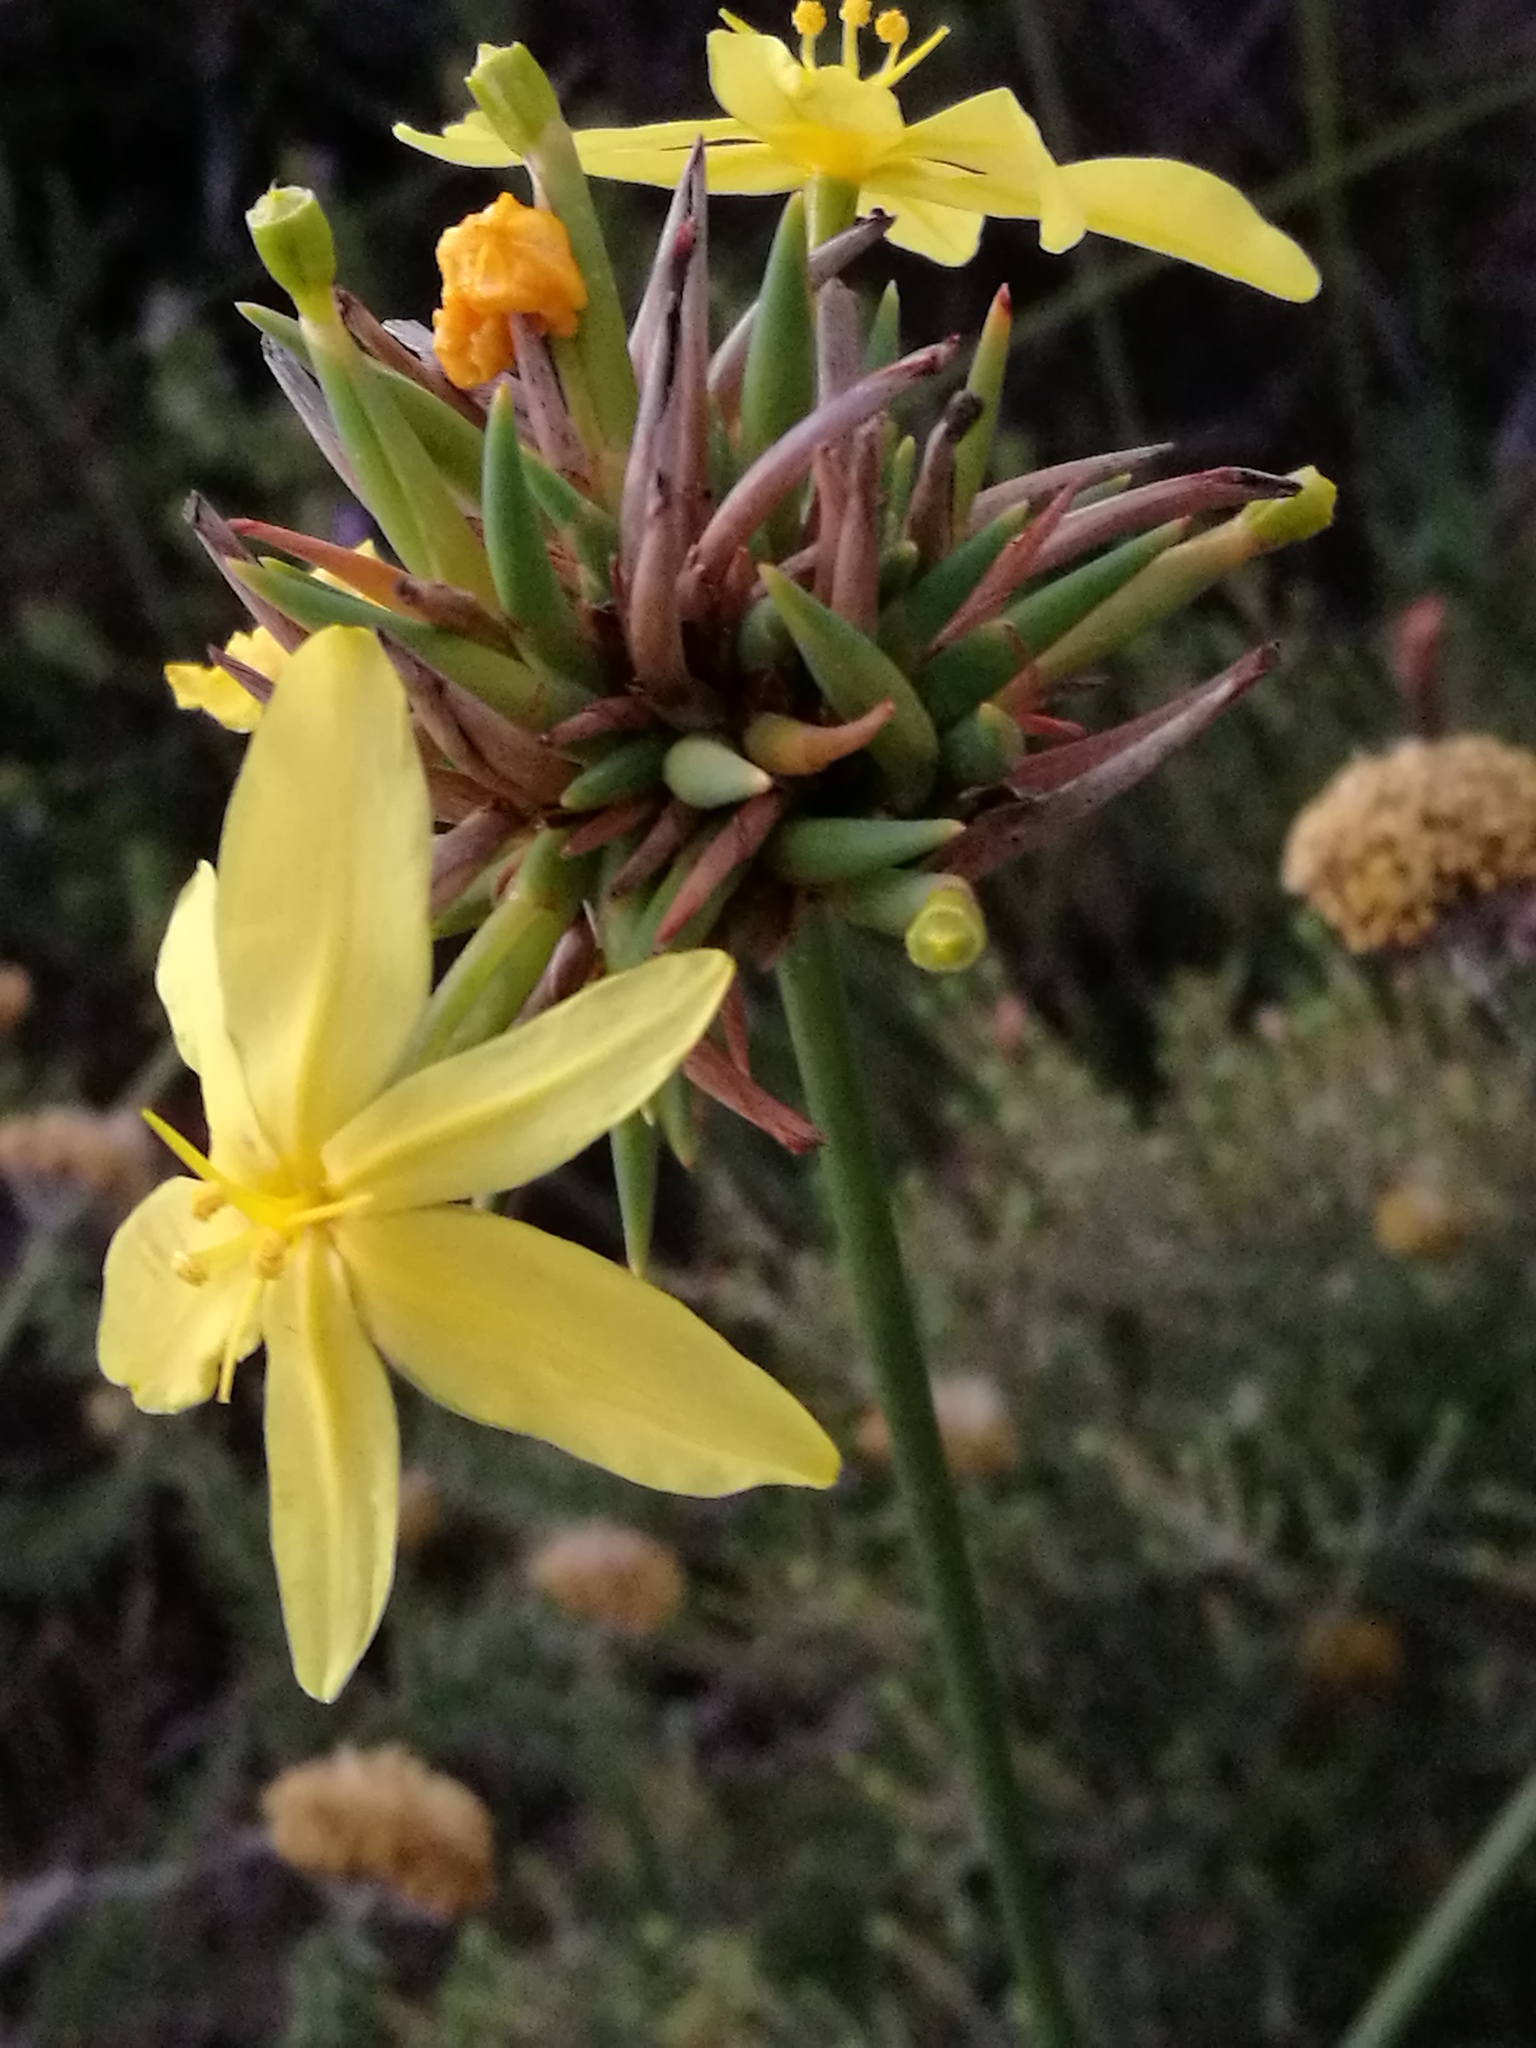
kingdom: Plantae
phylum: Tracheophyta
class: Liliopsida
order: Asparagales
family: Iridaceae
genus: Bobartia
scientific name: Bobartia orientalis
